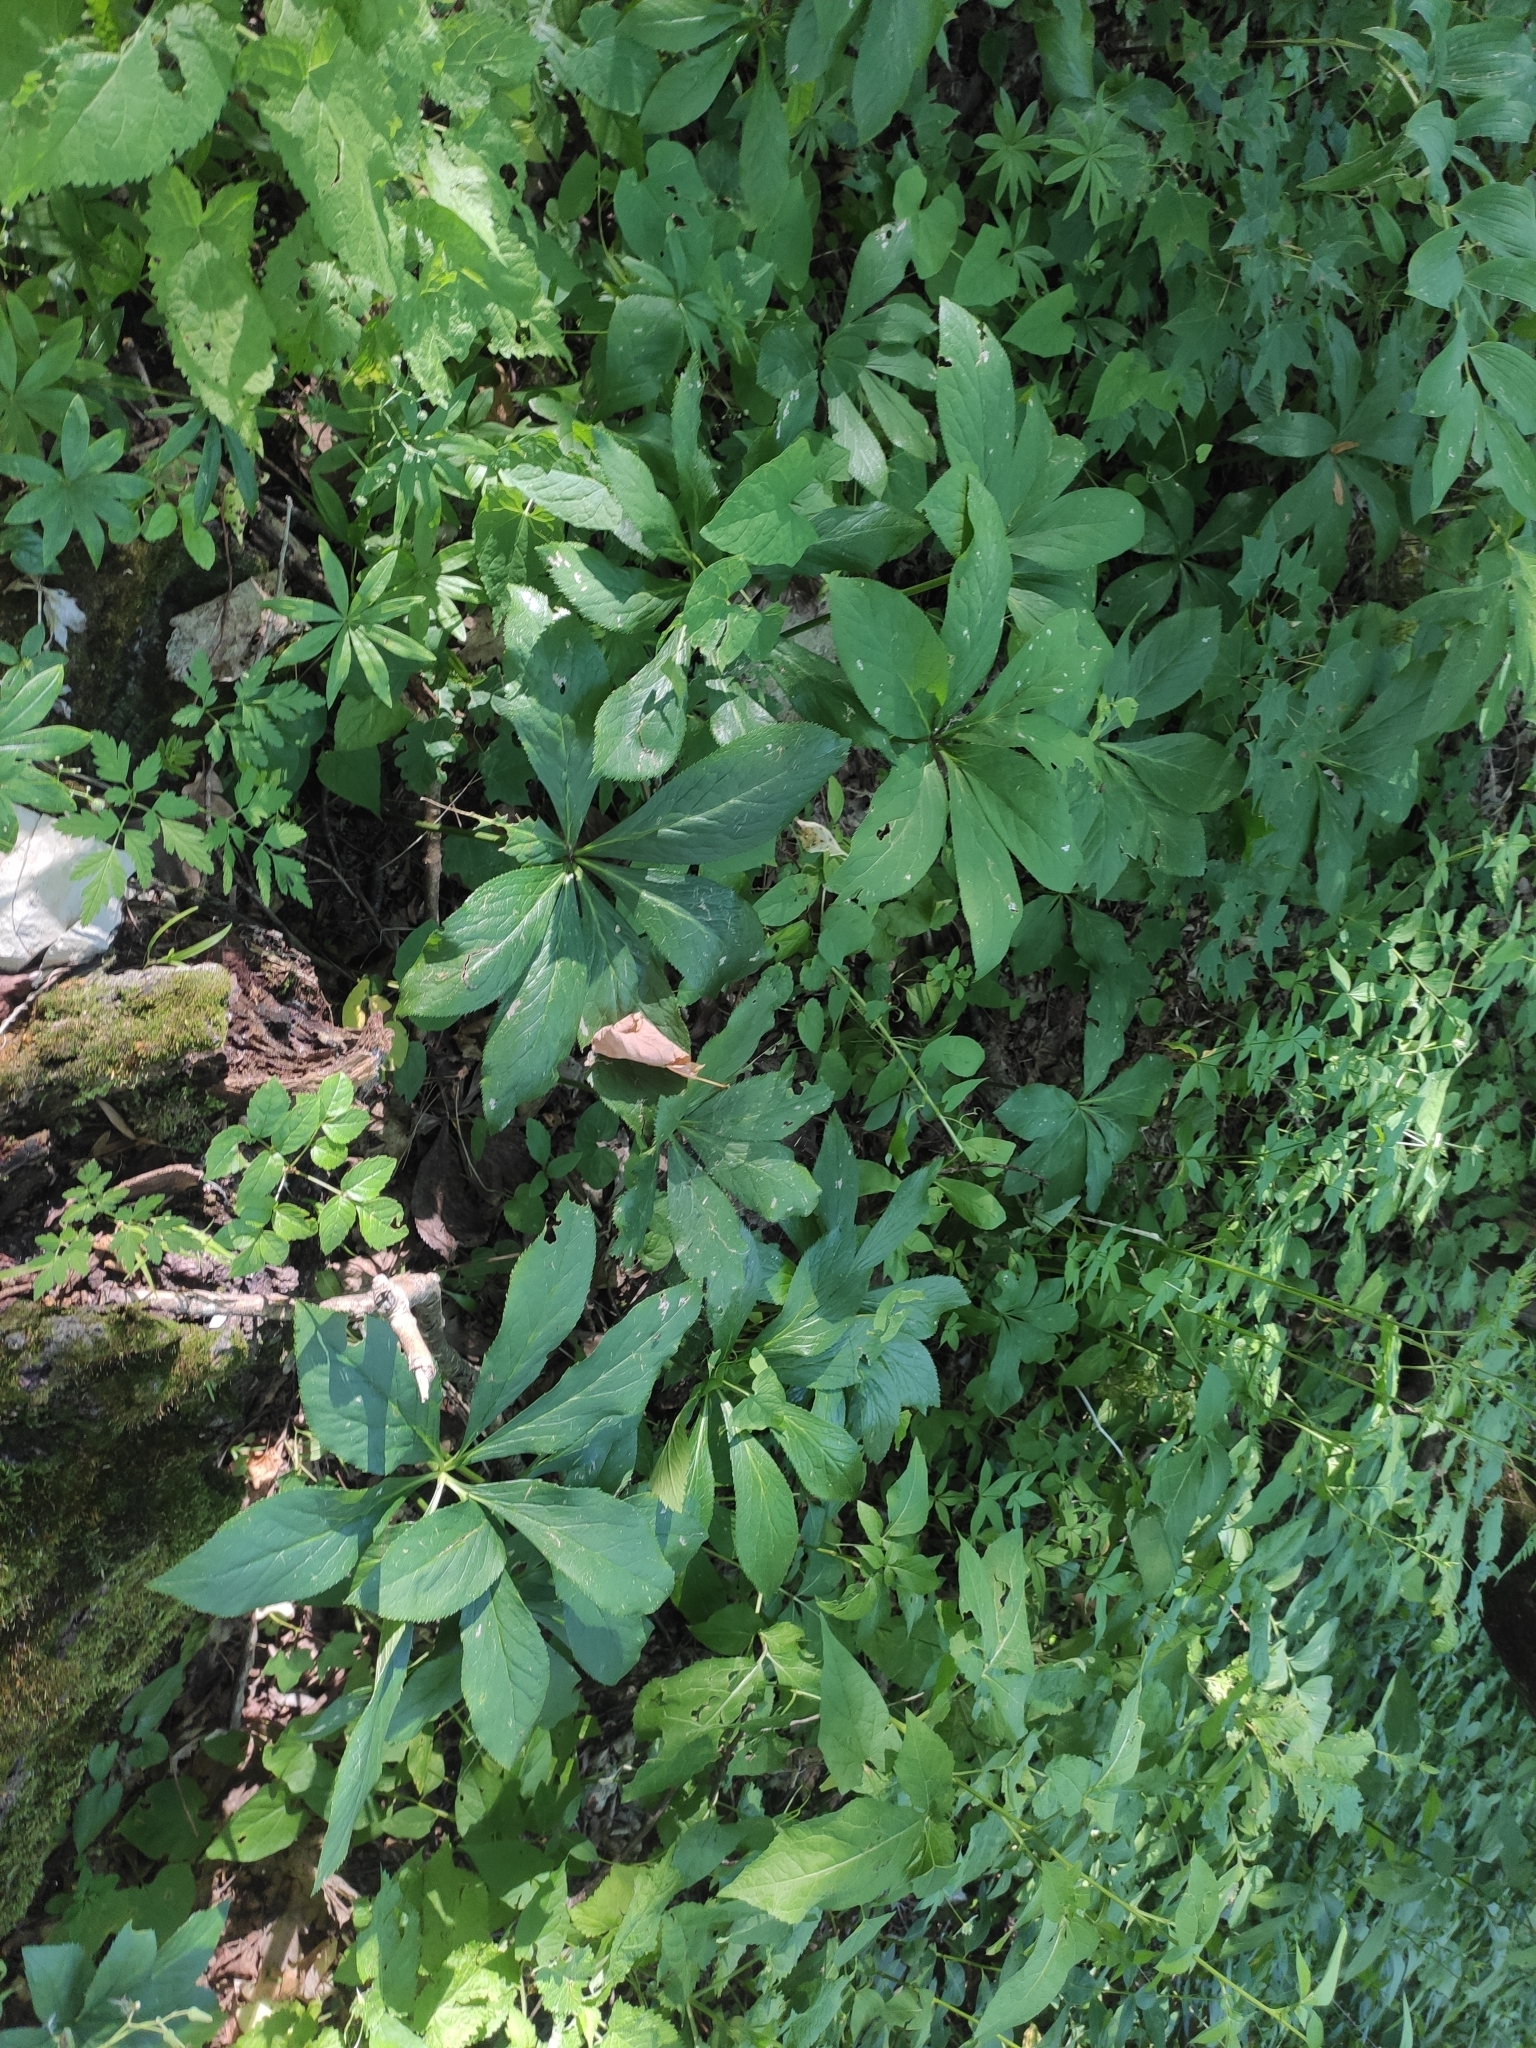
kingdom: Plantae
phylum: Tracheophyta
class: Magnoliopsida
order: Ranunculales
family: Ranunculaceae
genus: Helleborus
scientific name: Helleborus orientalis
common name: Lenten-rose
